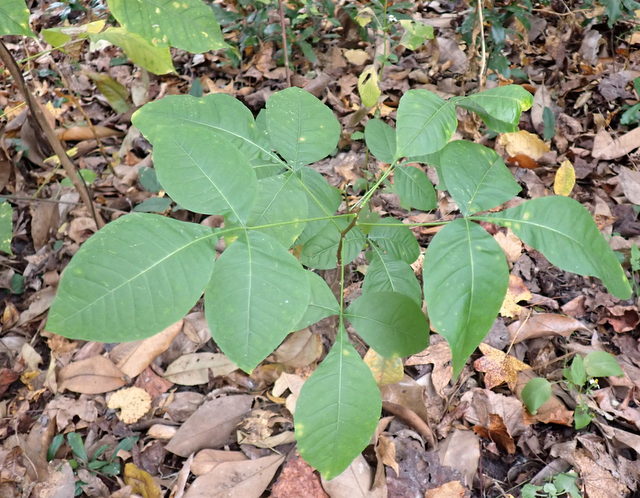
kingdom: Plantae
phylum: Tracheophyta
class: Magnoliopsida
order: Fagales
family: Juglandaceae
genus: Carya
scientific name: Carya glabra
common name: Pignut hickory
